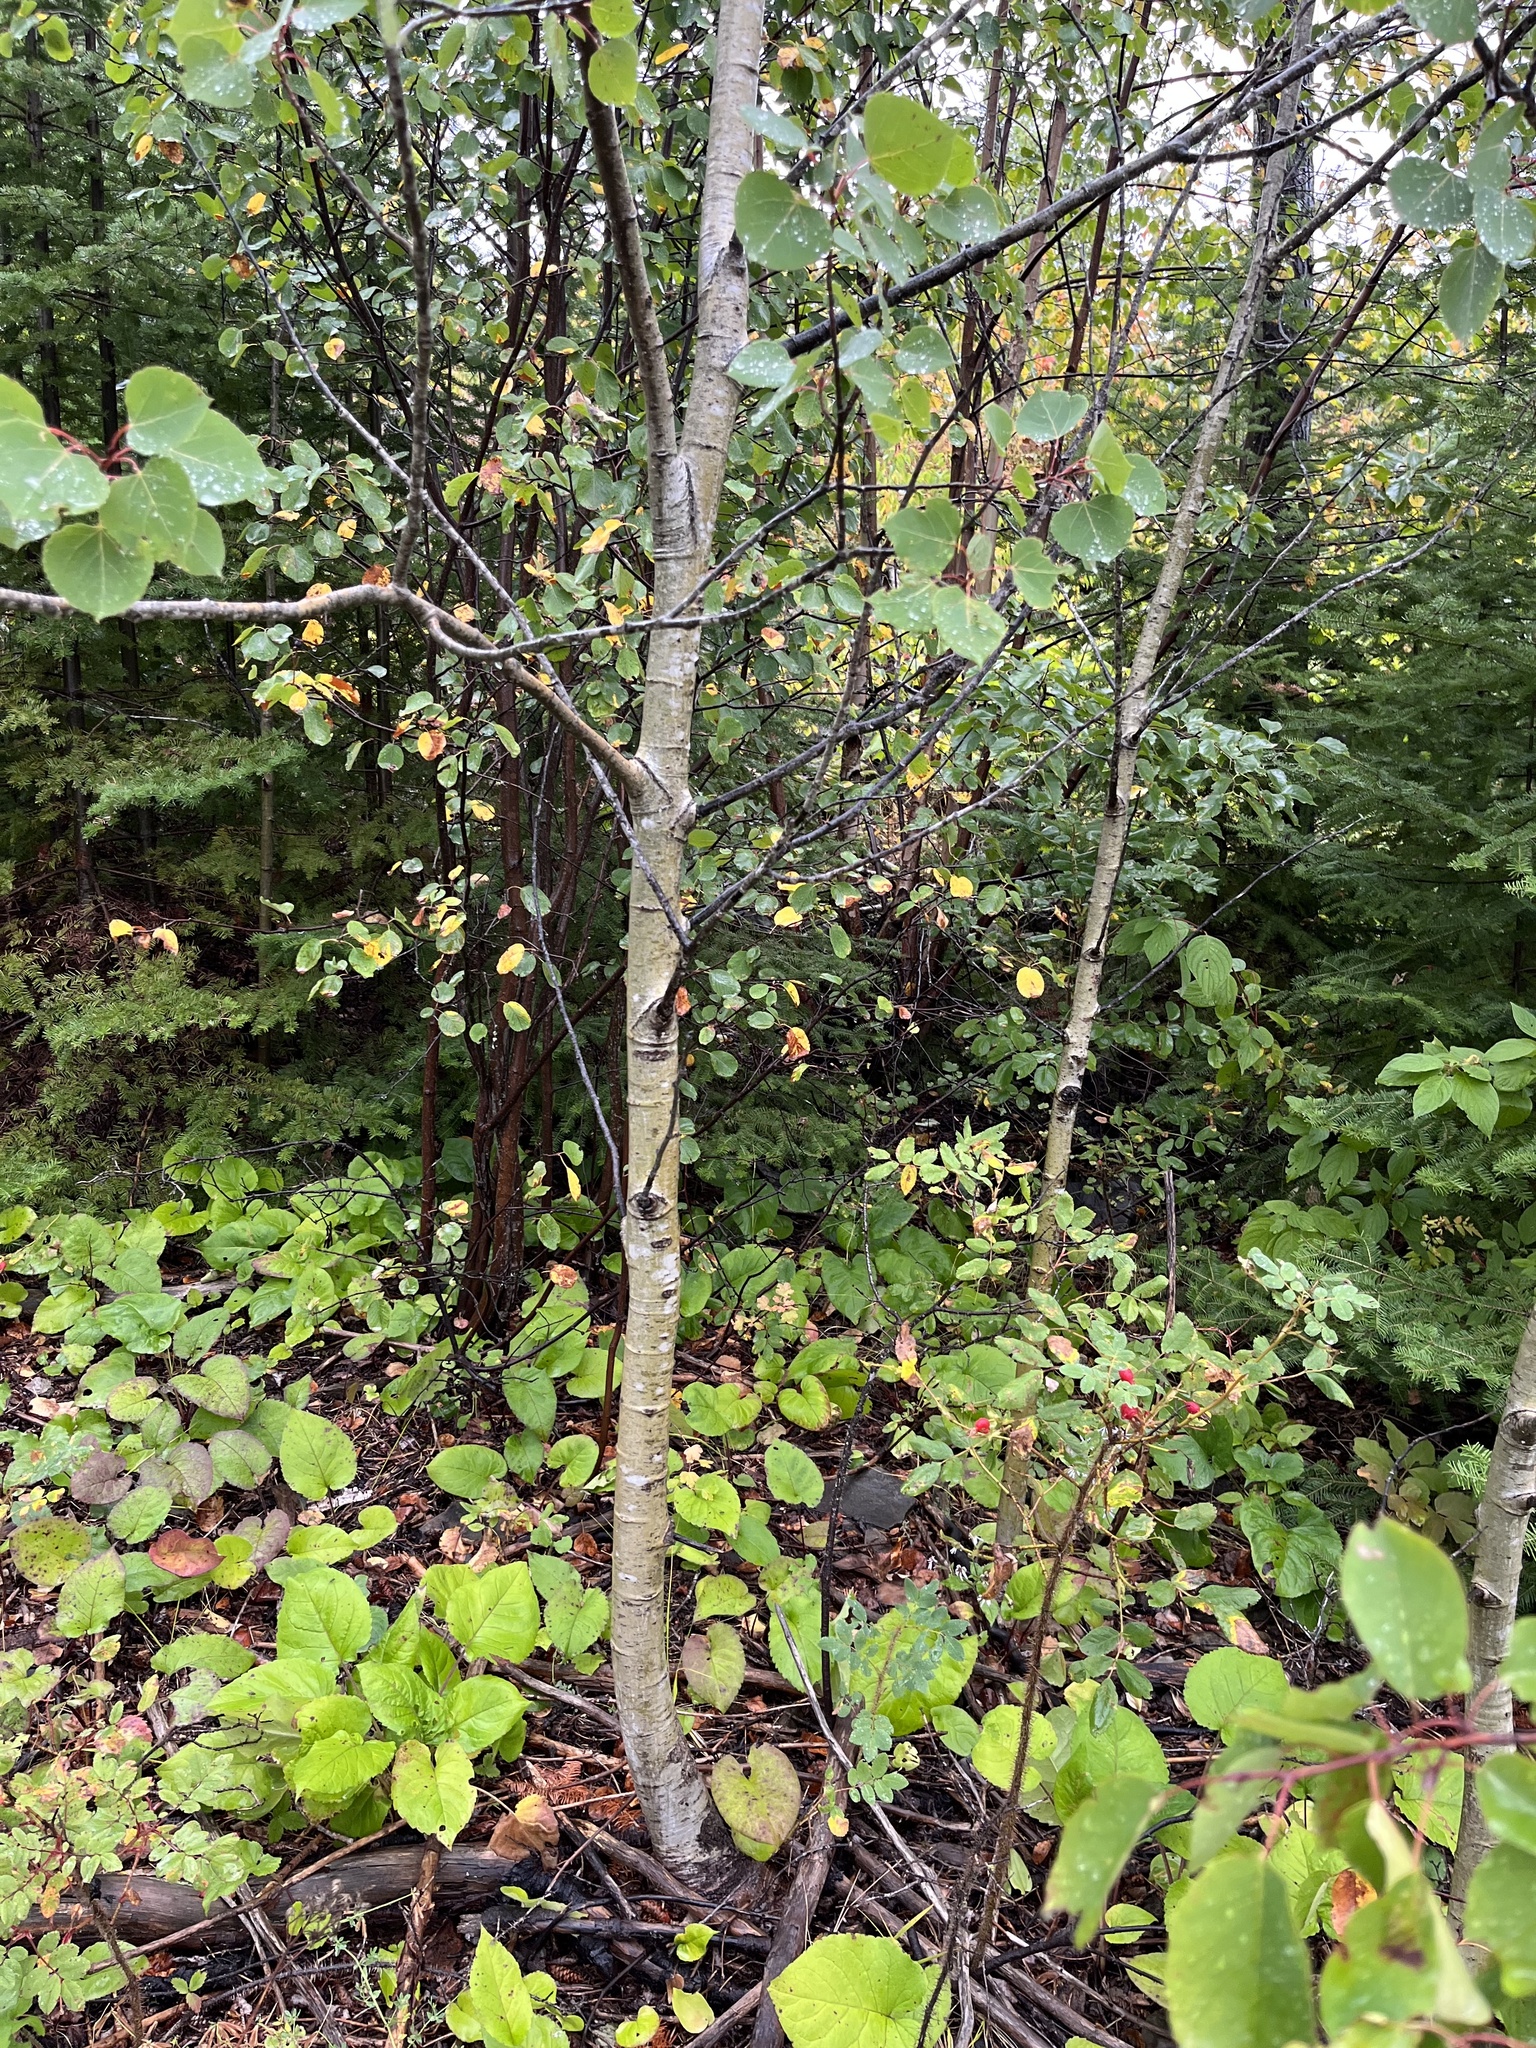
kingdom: Plantae
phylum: Tracheophyta
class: Magnoliopsida
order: Malpighiales
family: Salicaceae
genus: Populus
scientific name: Populus tremuloides
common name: Quaking aspen
